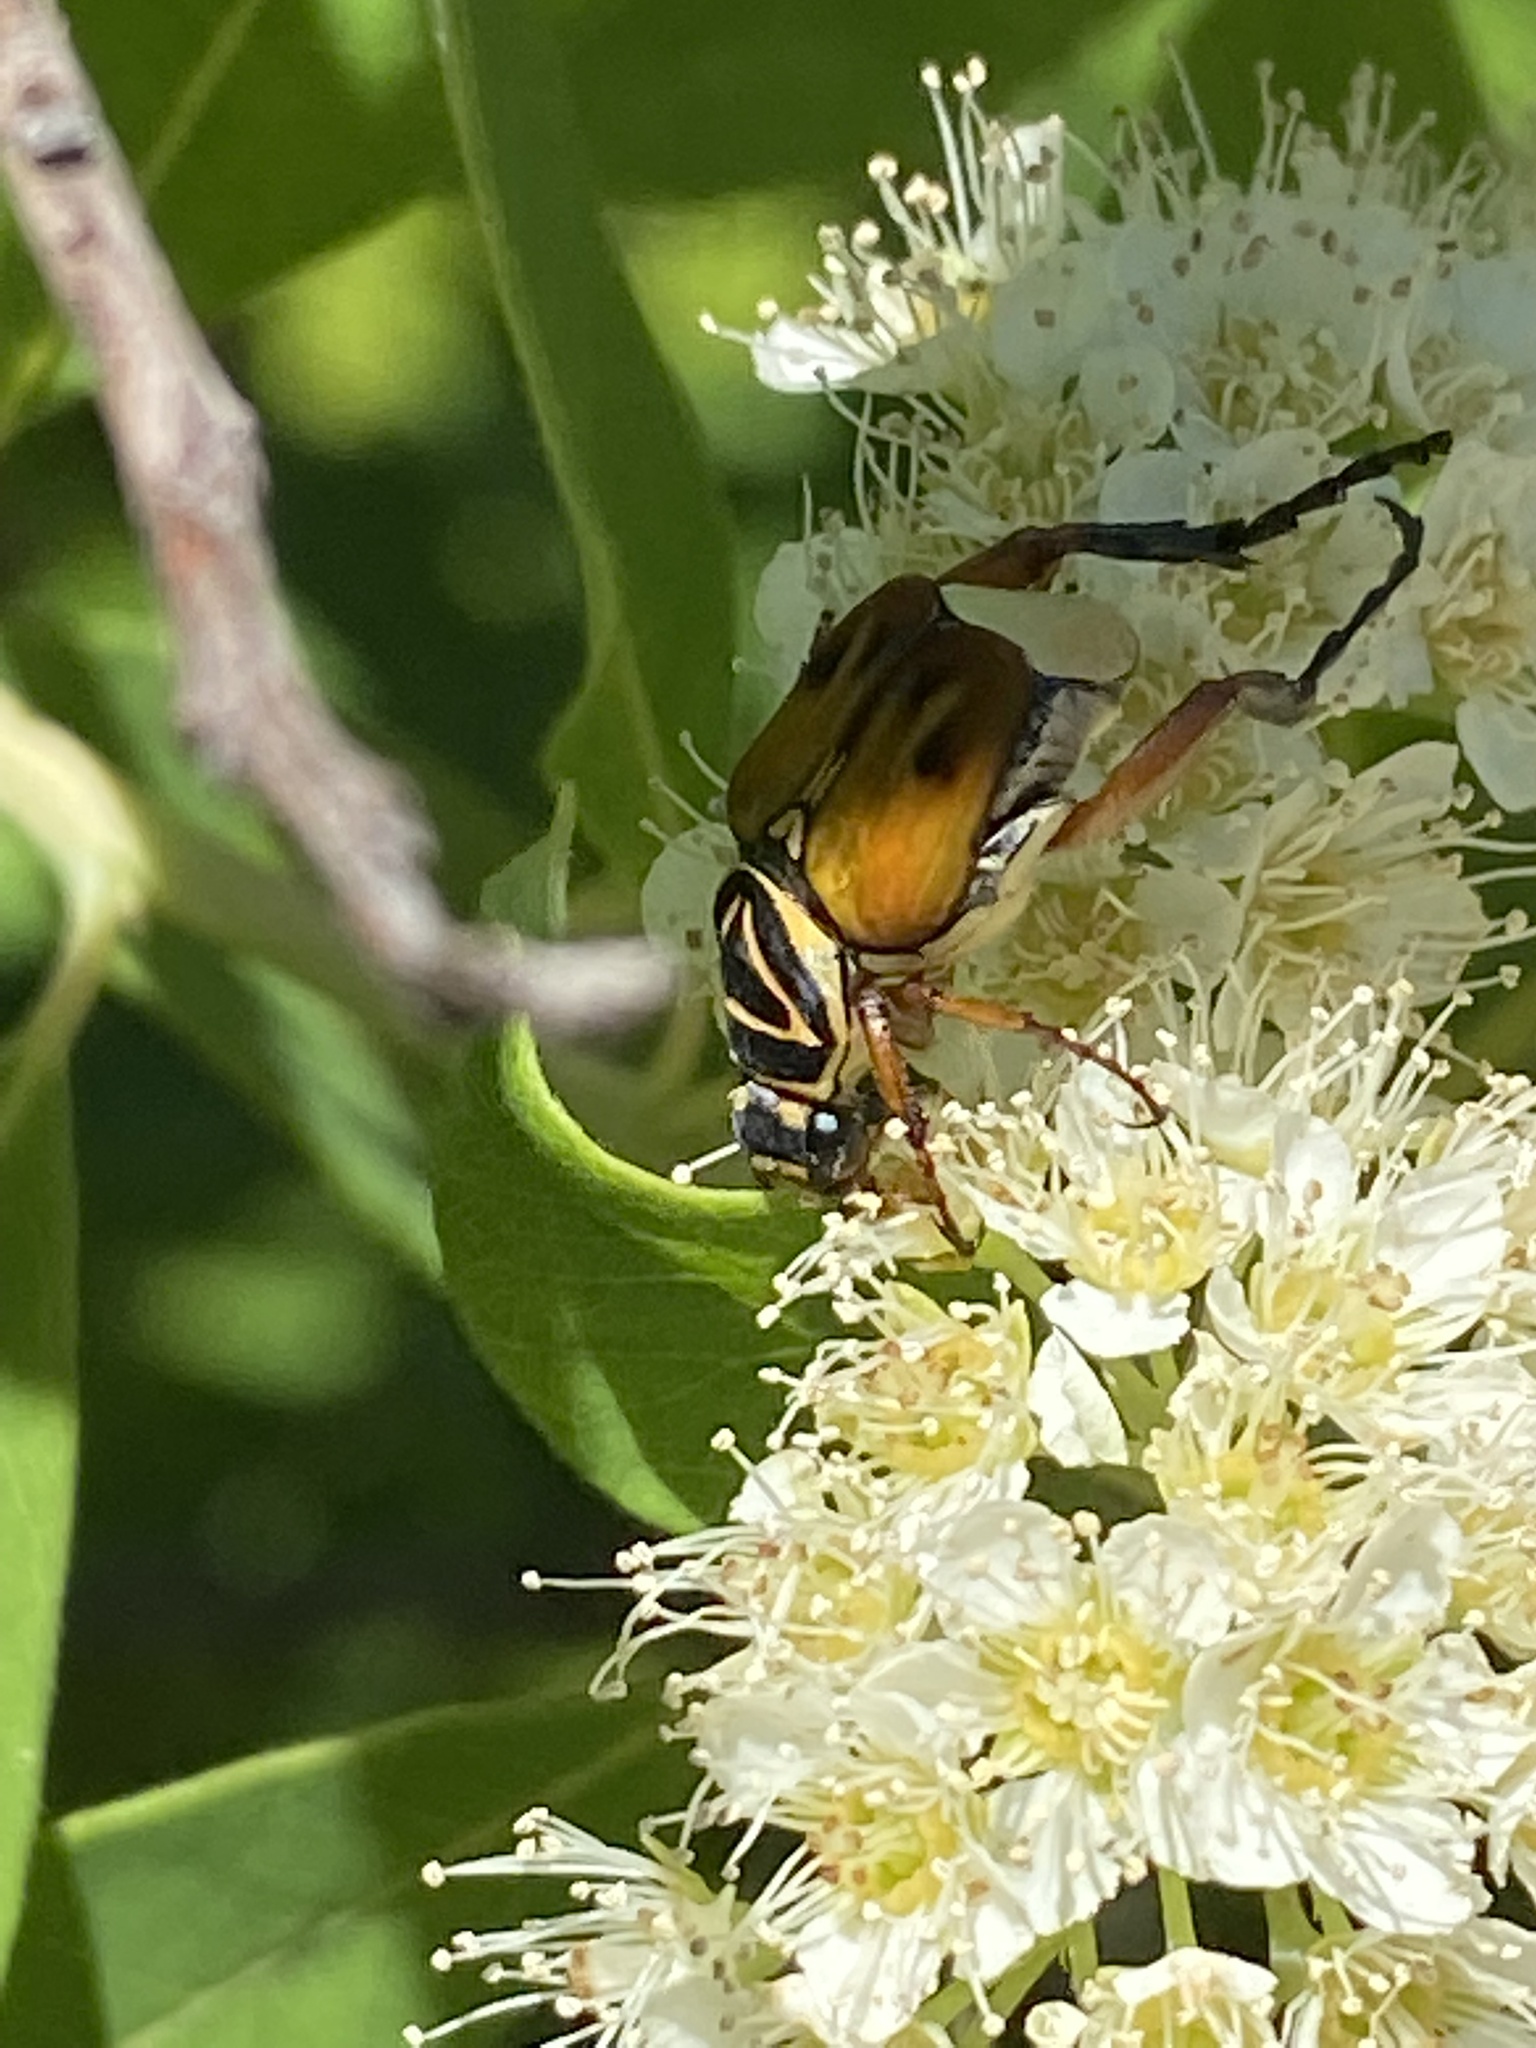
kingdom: Animalia
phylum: Arthropoda
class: Insecta
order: Coleoptera
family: Scarabaeidae
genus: Trigonopeltastes
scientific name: Trigonopeltastes delta
